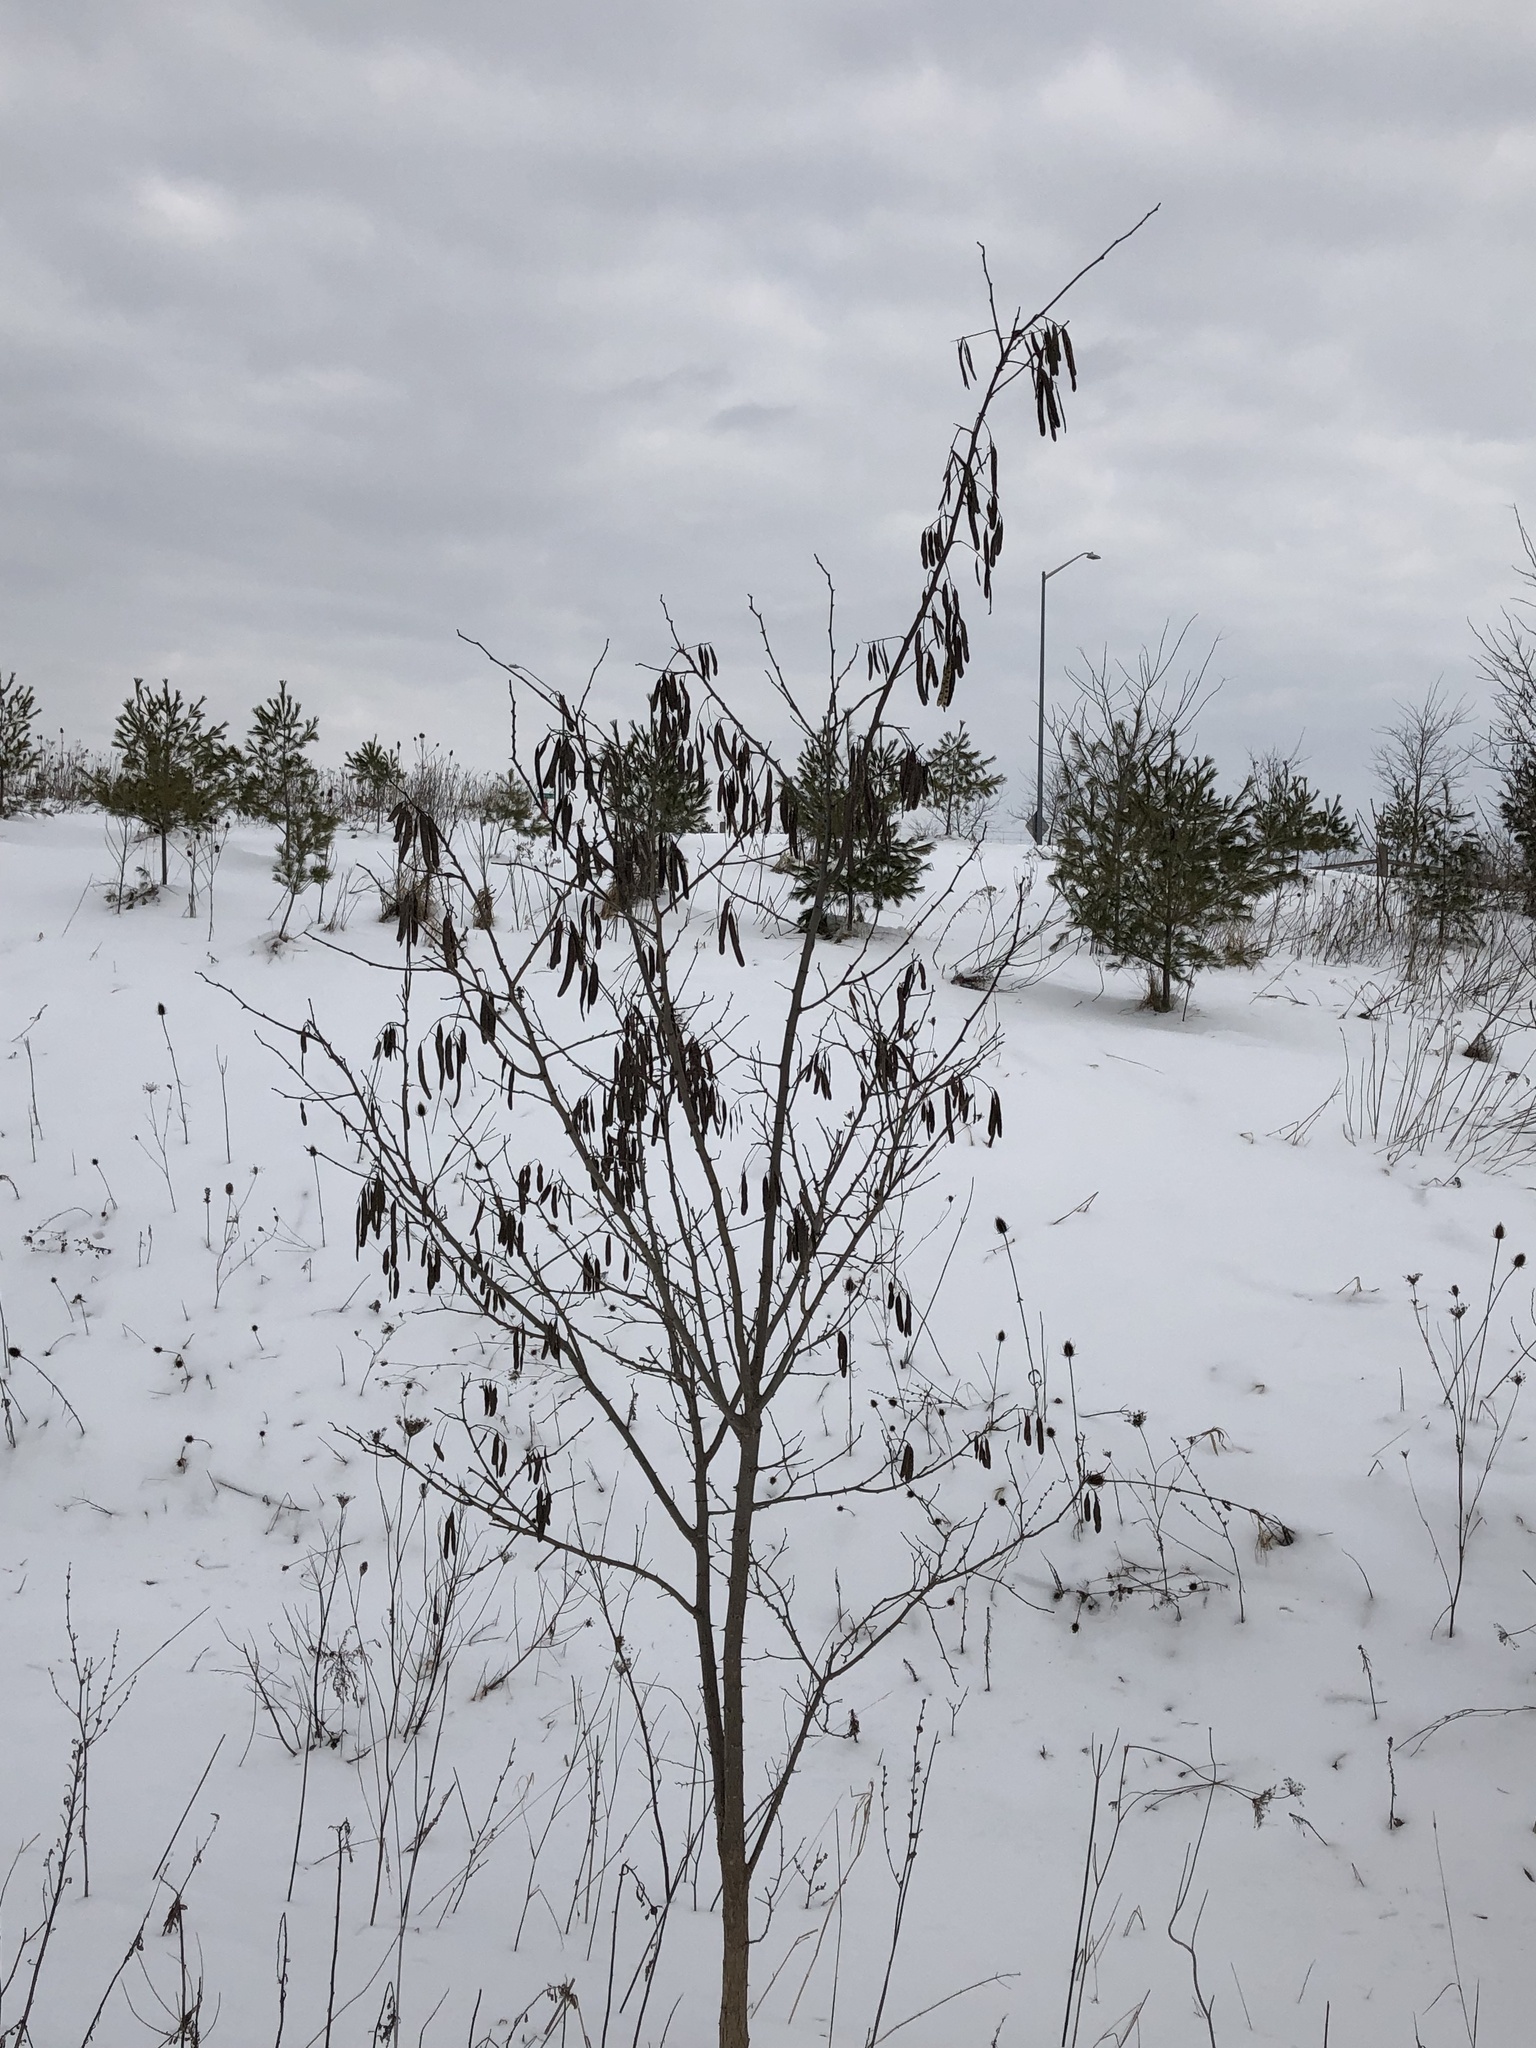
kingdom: Plantae
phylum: Tracheophyta
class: Magnoliopsida
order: Fabales
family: Fabaceae
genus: Robinia
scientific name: Robinia pseudoacacia
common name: Black locust
